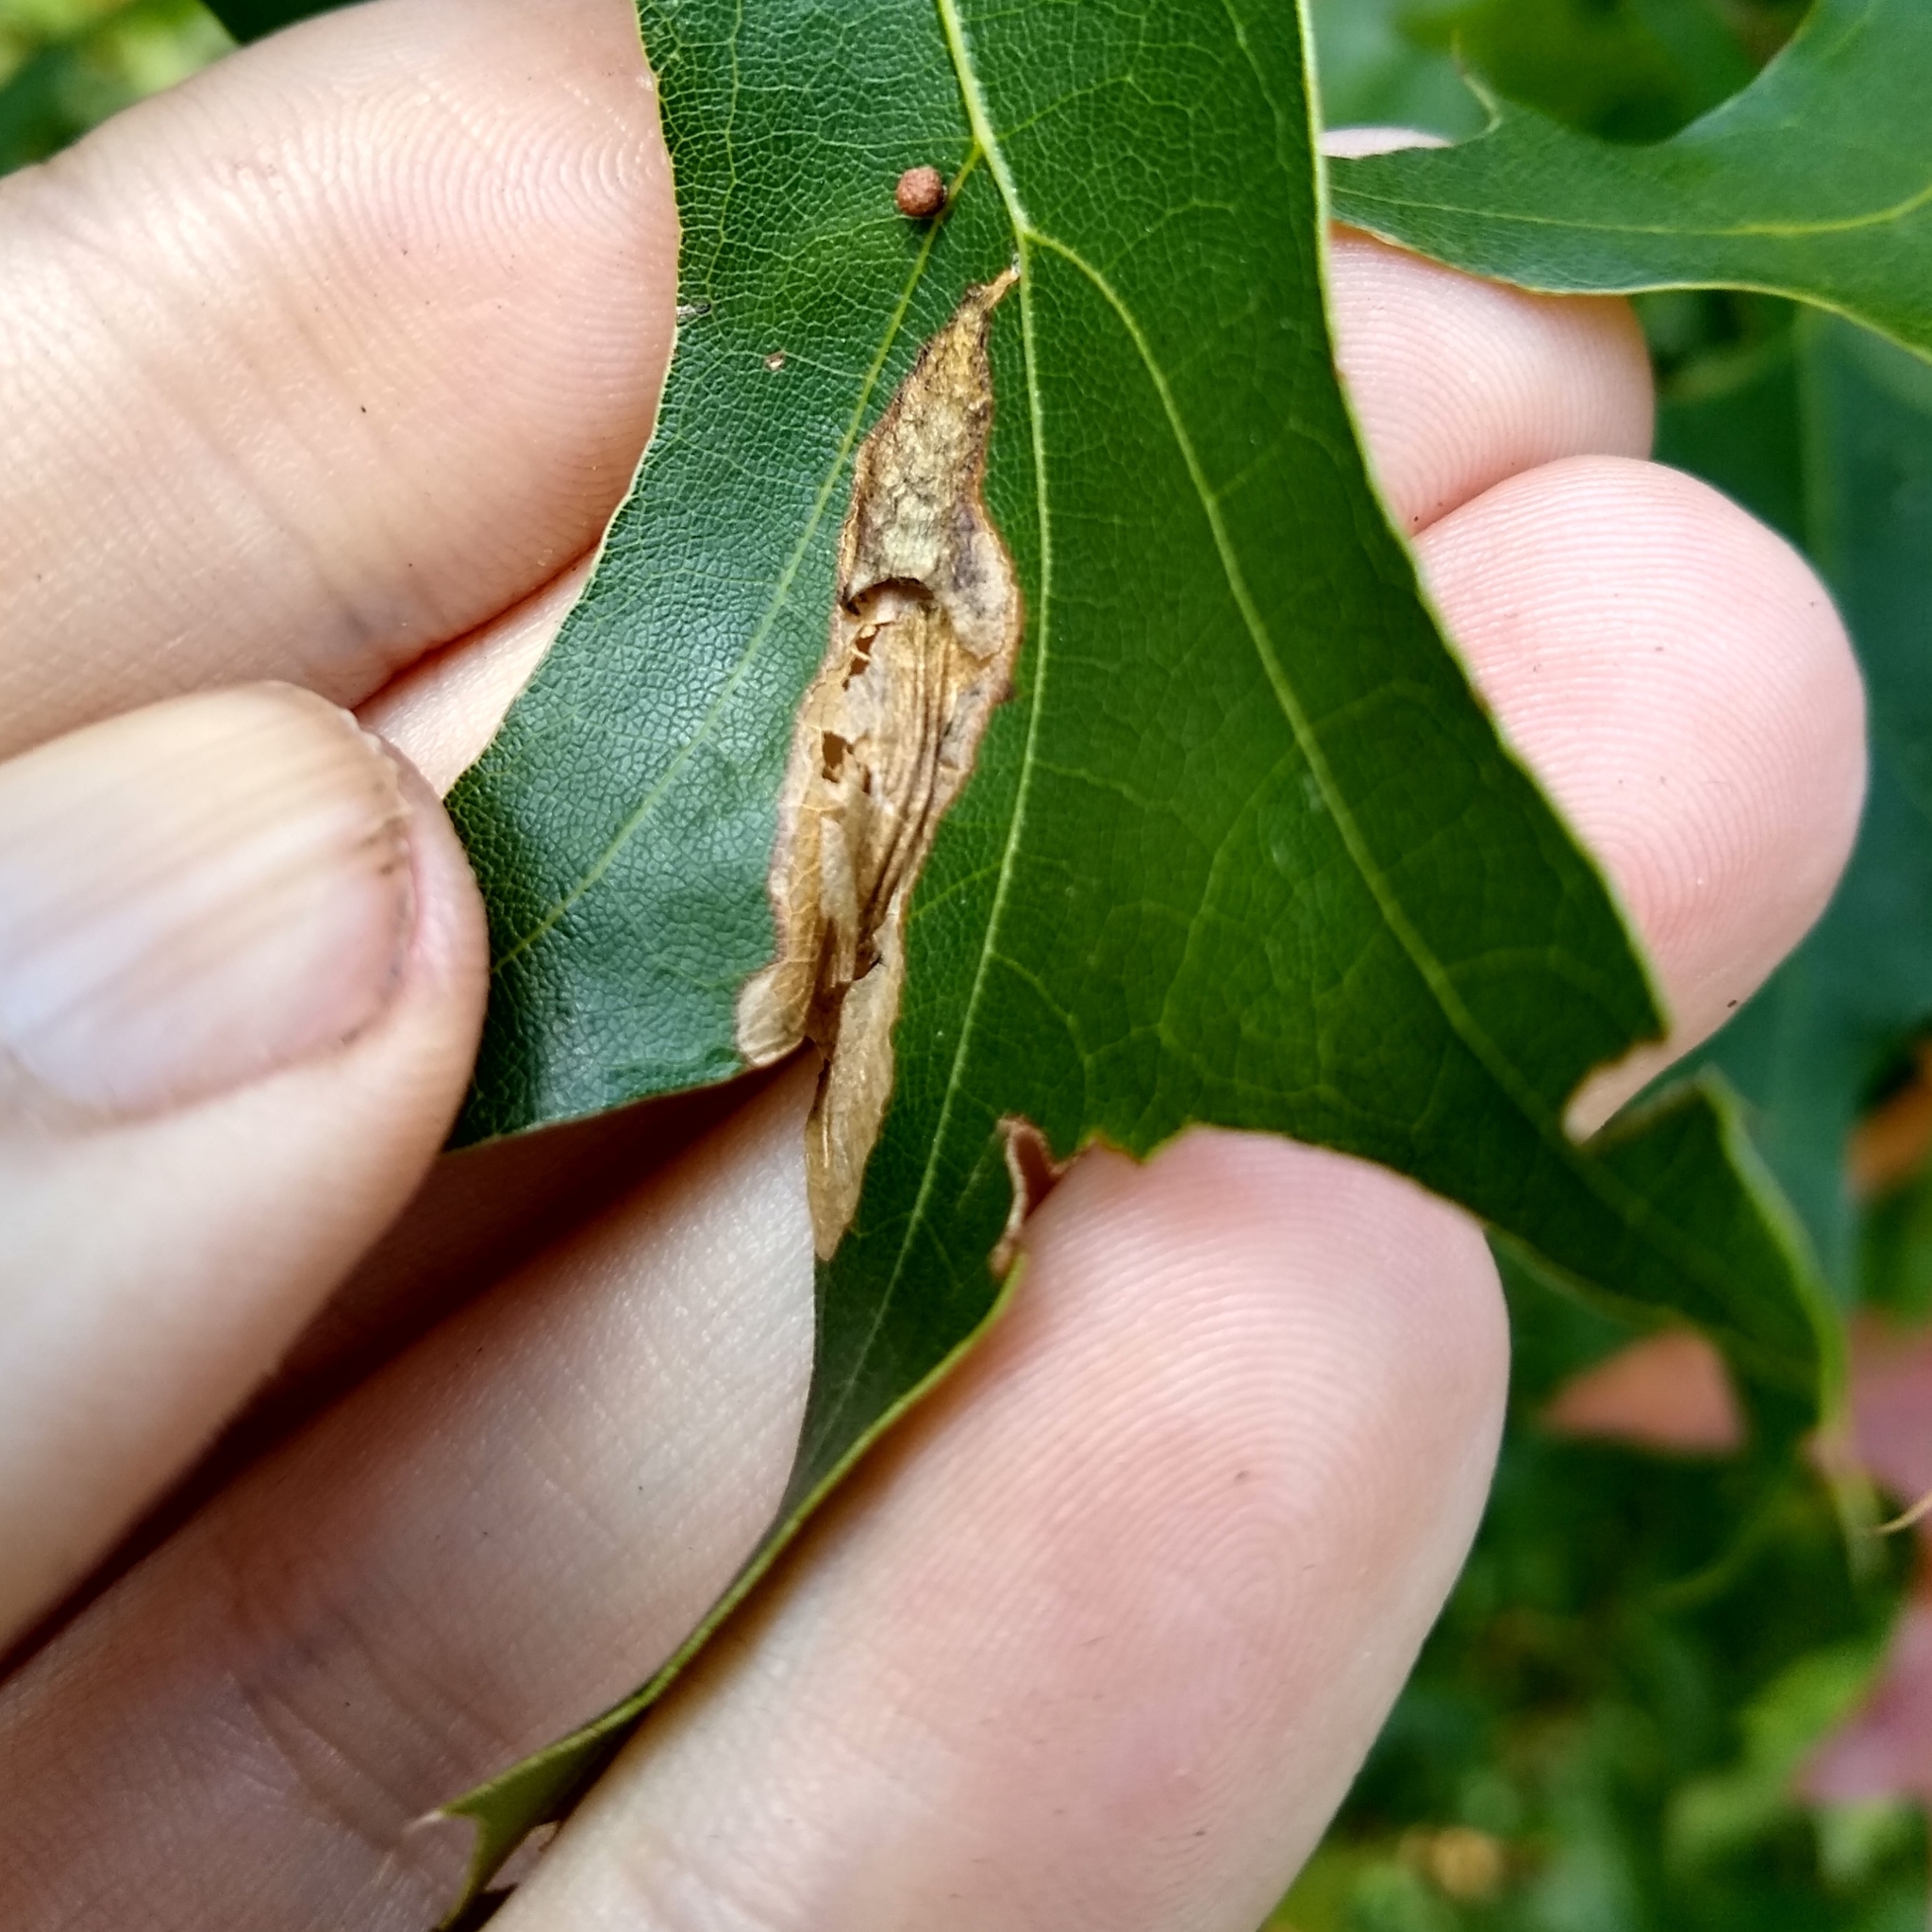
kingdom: Animalia
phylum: Arthropoda
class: Insecta
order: Lepidoptera
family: Tischeriidae
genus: Coptotriche
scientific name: Coptotriche castaneaeella
